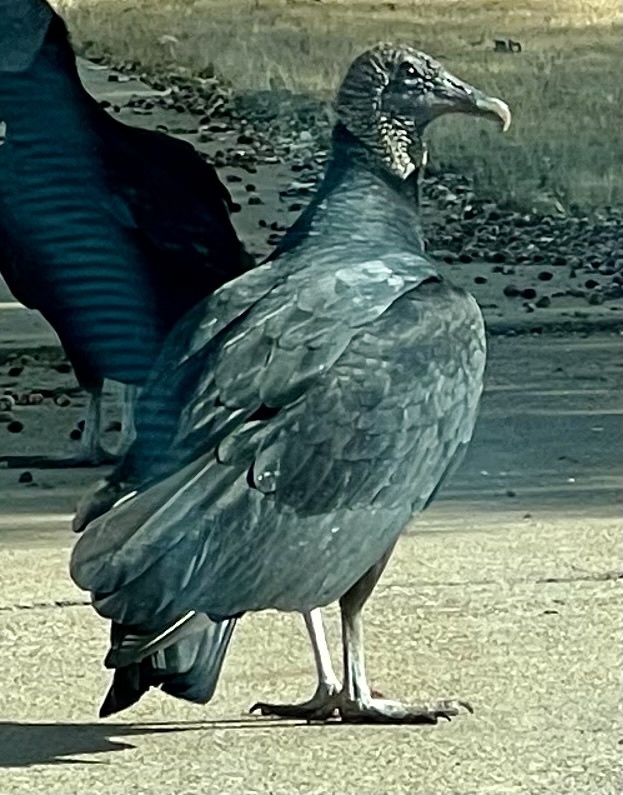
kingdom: Animalia
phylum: Chordata
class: Aves
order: Accipitriformes
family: Cathartidae
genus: Coragyps
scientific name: Coragyps atratus
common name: Black vulture
